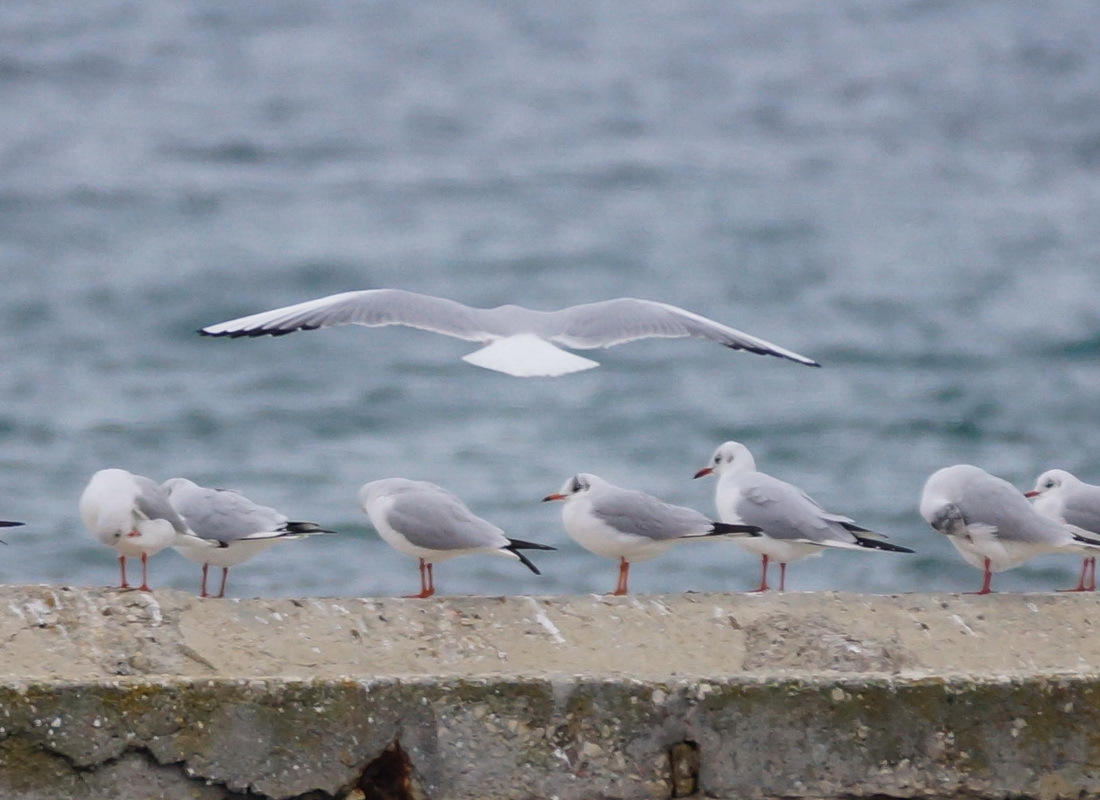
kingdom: Animalia
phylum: Chordata
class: Aves
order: Charadriiformes
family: Laridae
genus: Chroicocephalus
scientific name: Chroicocephalus ridibundus
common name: Black-headed gull
